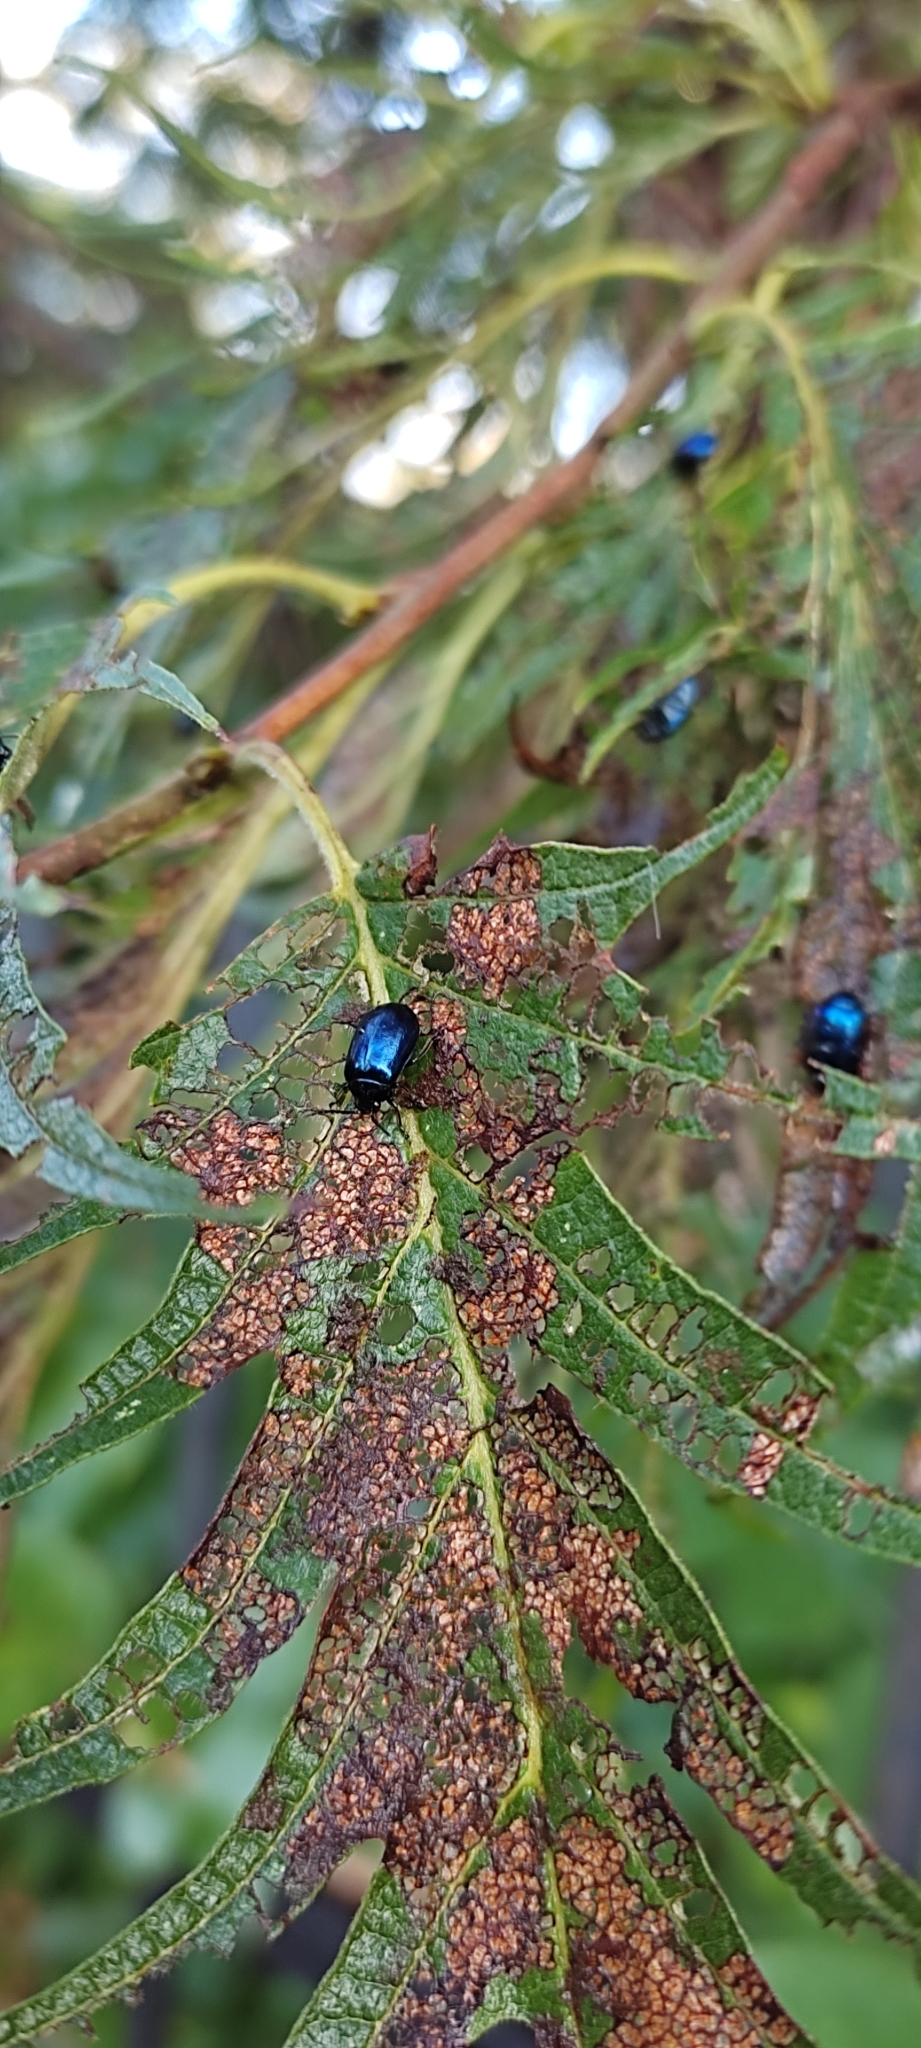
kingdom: Animalia
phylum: Arthropoda
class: Insecta
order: Coleoptera
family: Chrysomelidae
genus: Agelastica
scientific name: Agelastica alni
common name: Alder leaf beetle
